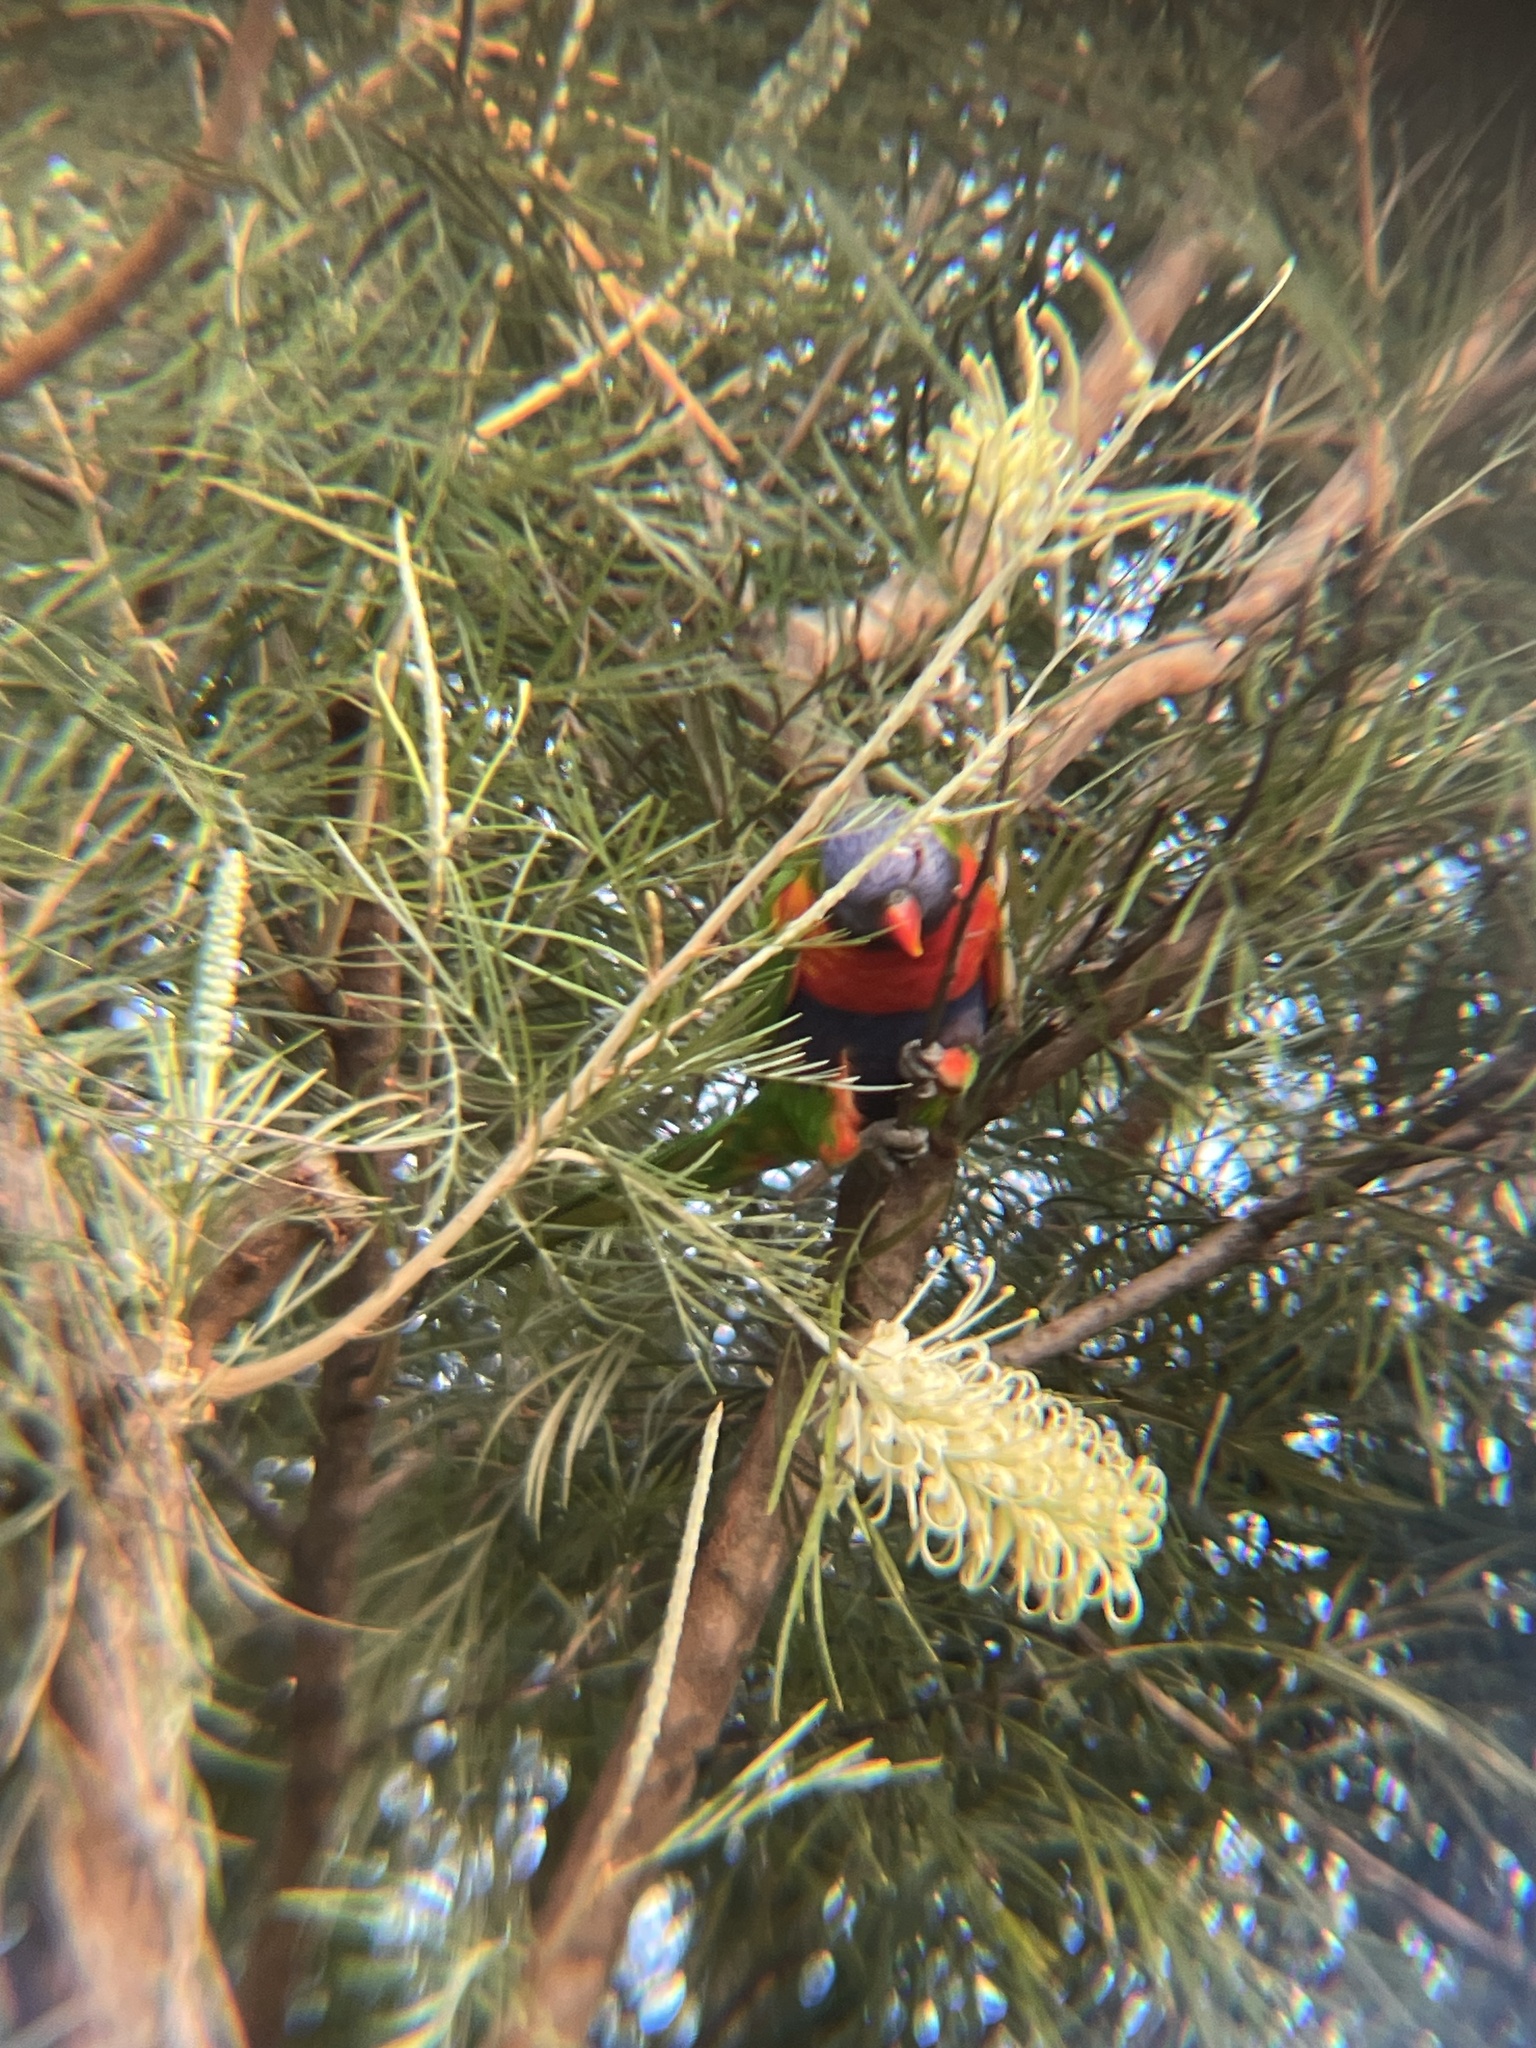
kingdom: Animalia
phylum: Chordata
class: Aves
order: Psittaciformes
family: Psittacidae
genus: Trichoglossus
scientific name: Trichoglossus haematodus
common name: Coconut lorikeet
